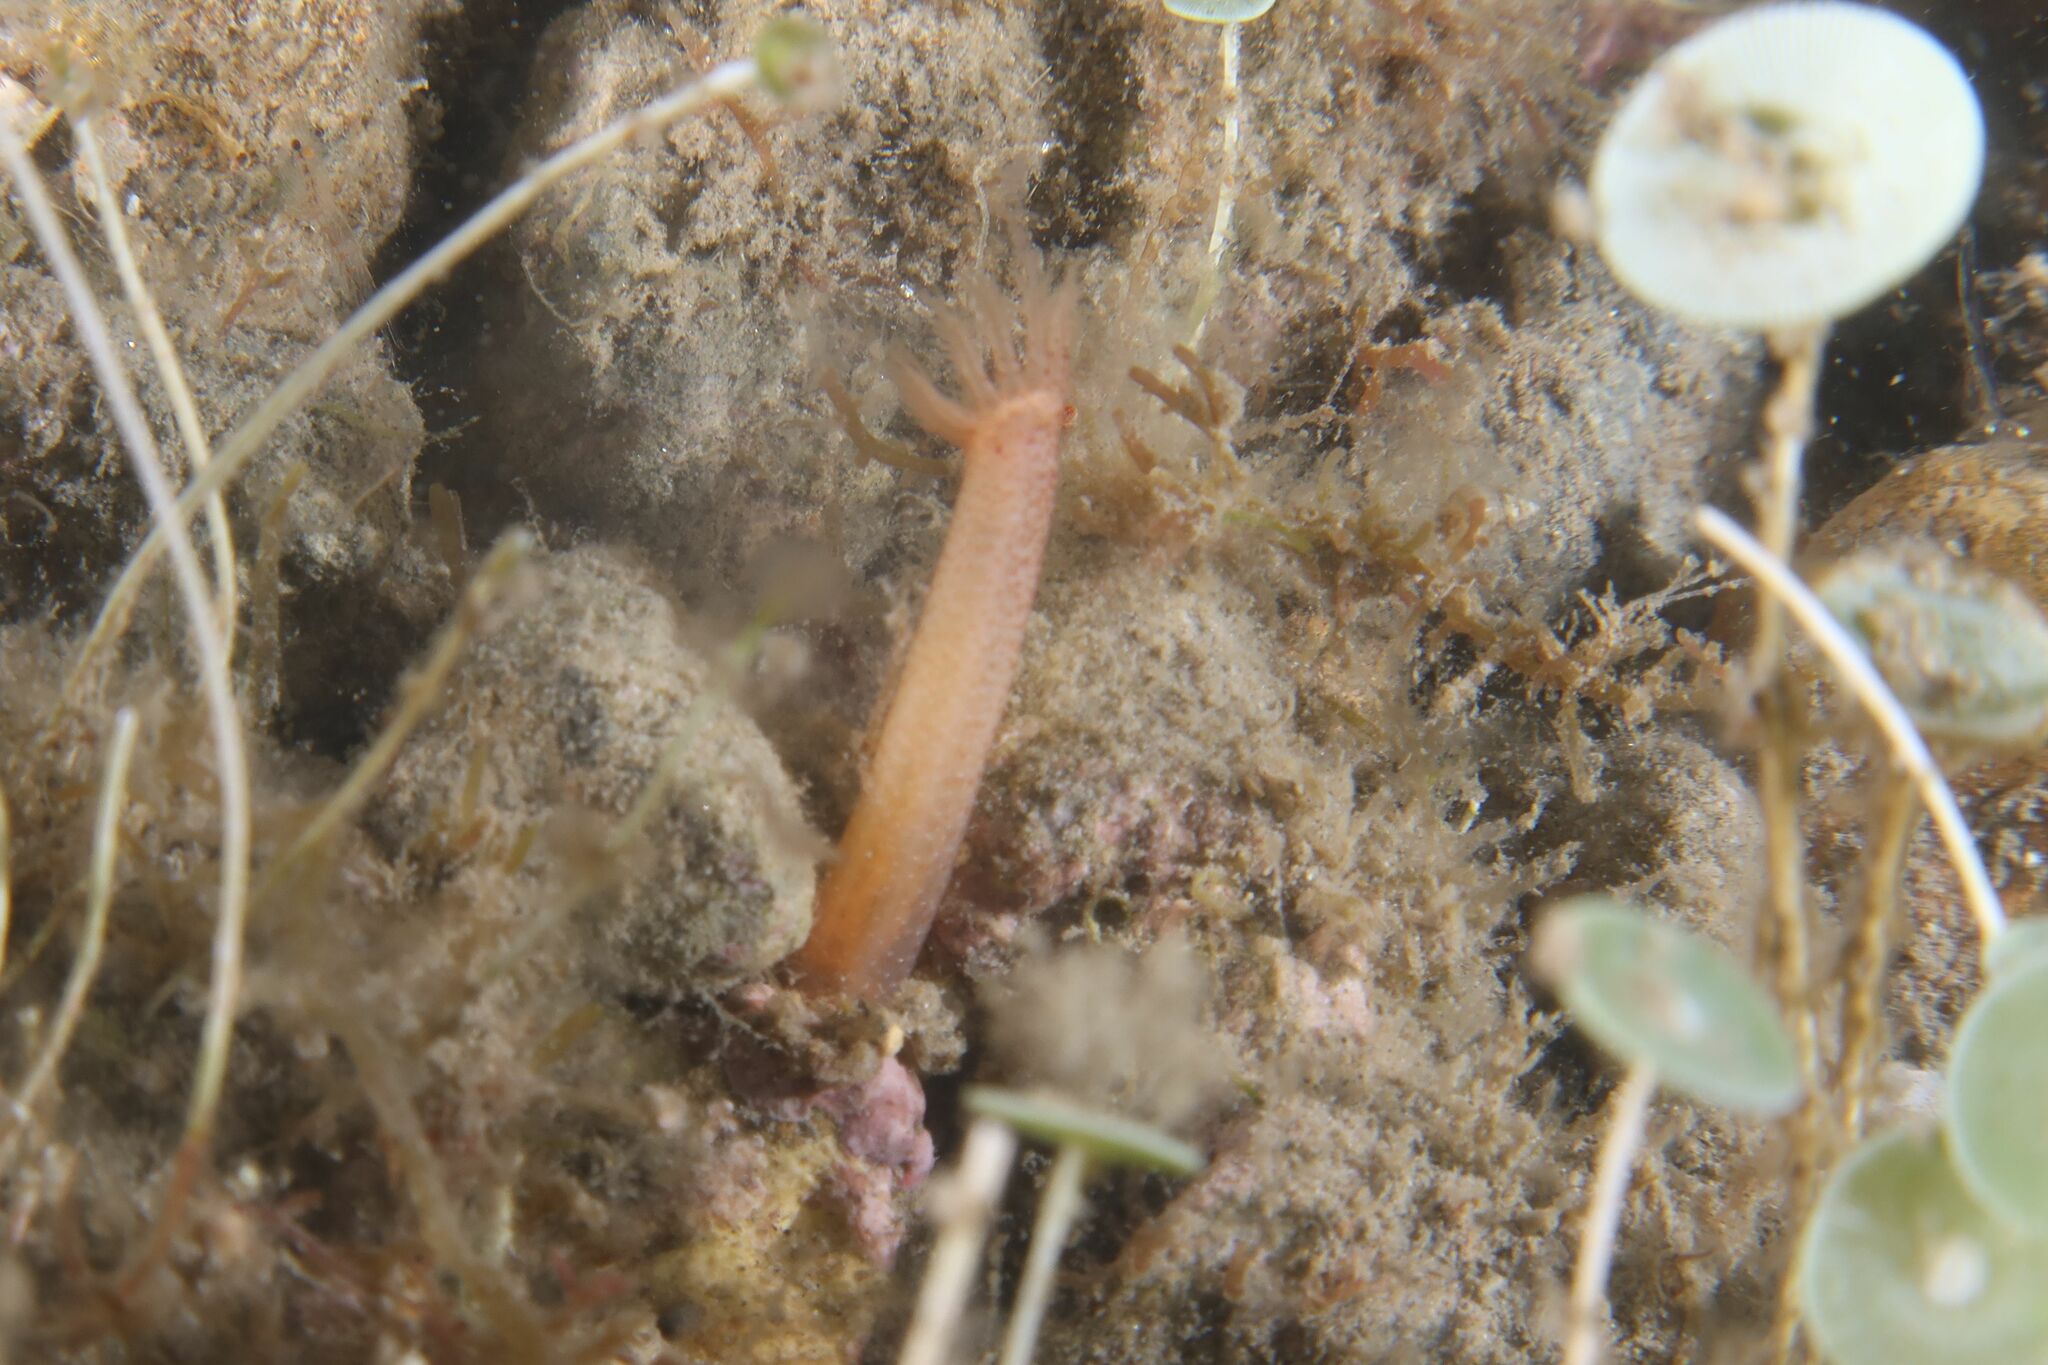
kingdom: Animalia
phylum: Echinodermata
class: Holothuroidea
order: Apodida
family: Synaptidae
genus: Oestergrenia
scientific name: Oestergrenia digitata
